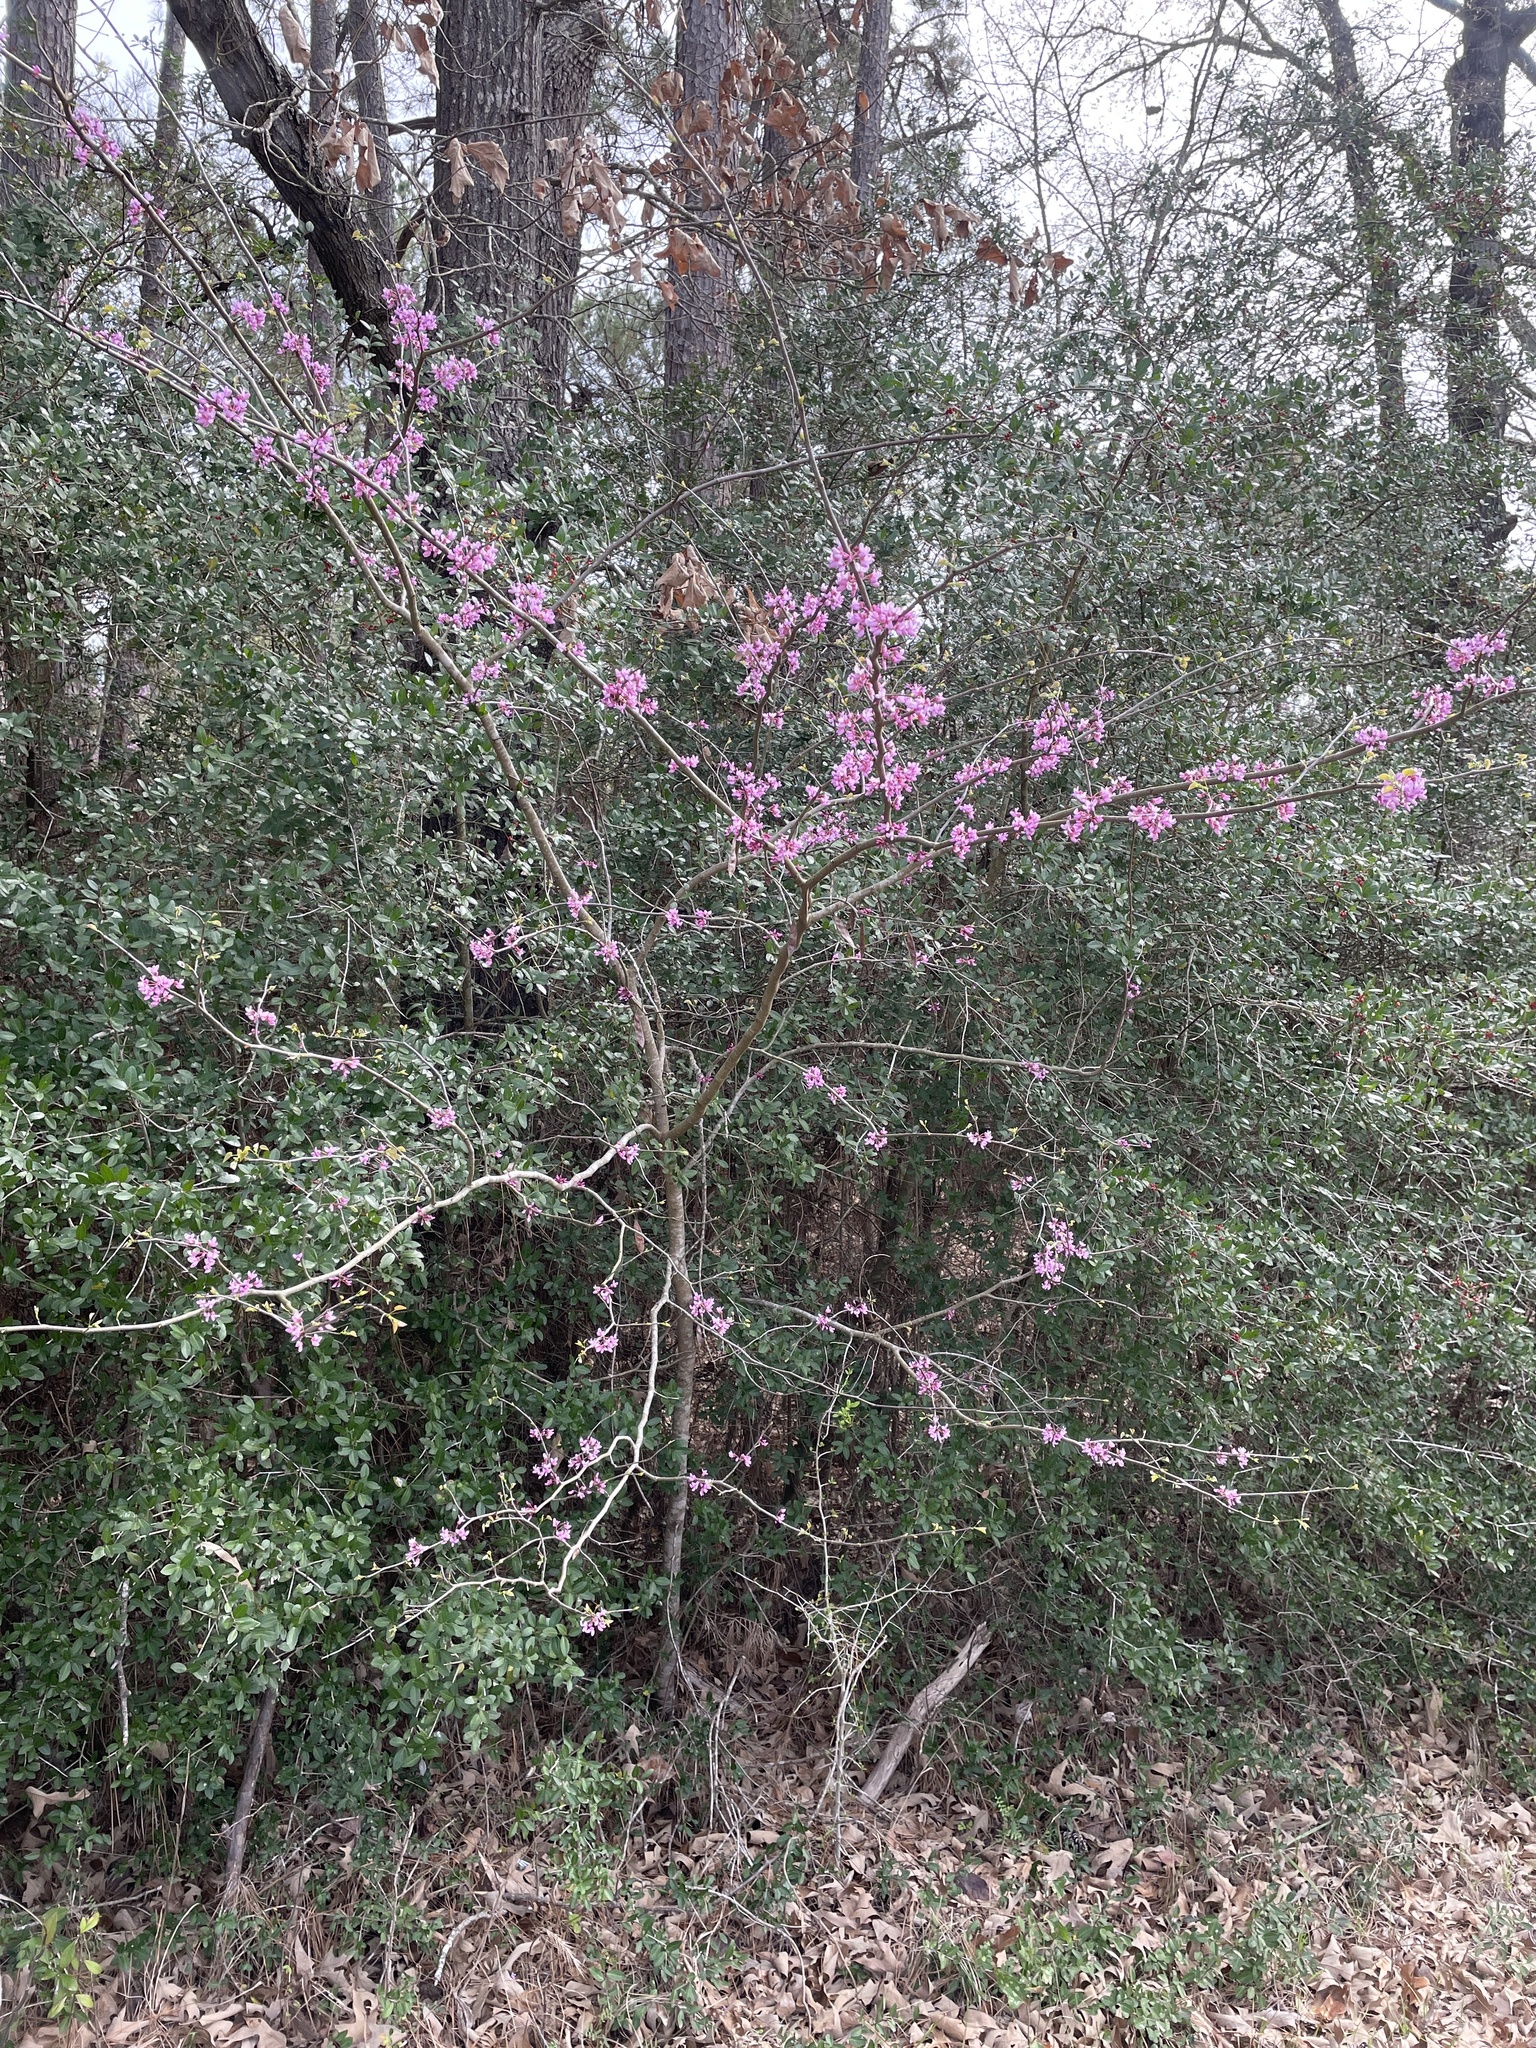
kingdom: Plantae
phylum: Tracheophyta
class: Magnoliopsida
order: Fabales
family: Fabaceae
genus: Cercis
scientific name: Cercis canadensis
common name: Eastern redbud
